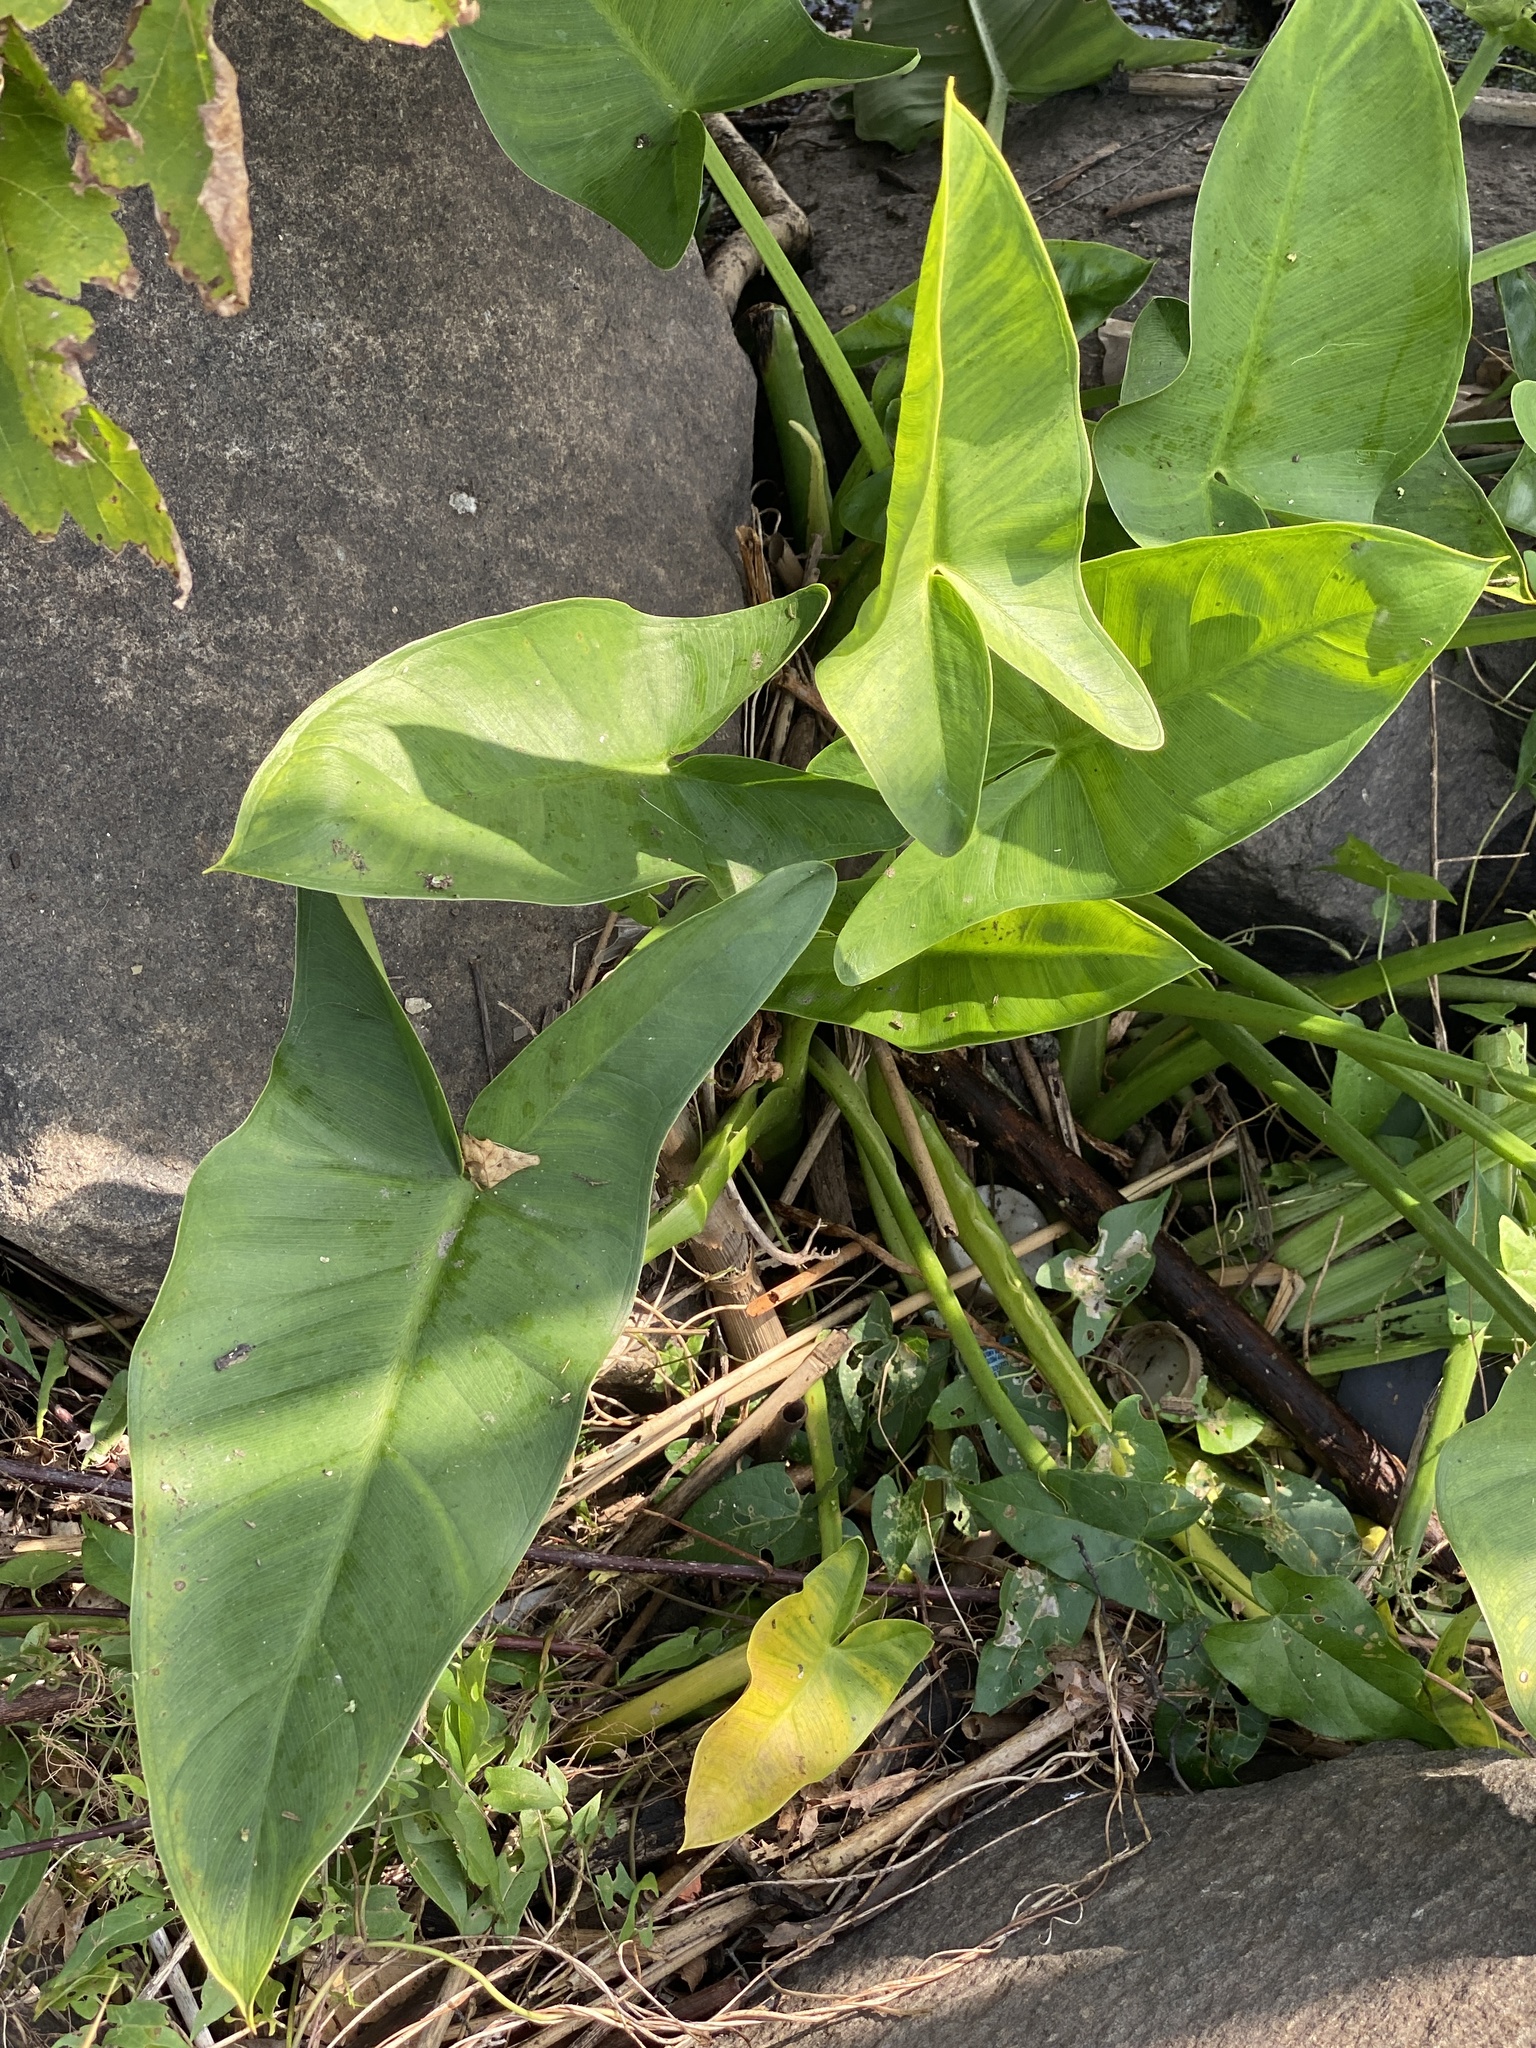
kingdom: Plantae
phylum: Tracheophyta
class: Liliopsida
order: Alismatales
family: Araceae
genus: Peltandra
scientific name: Peltandra virginica
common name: Arrow arum
